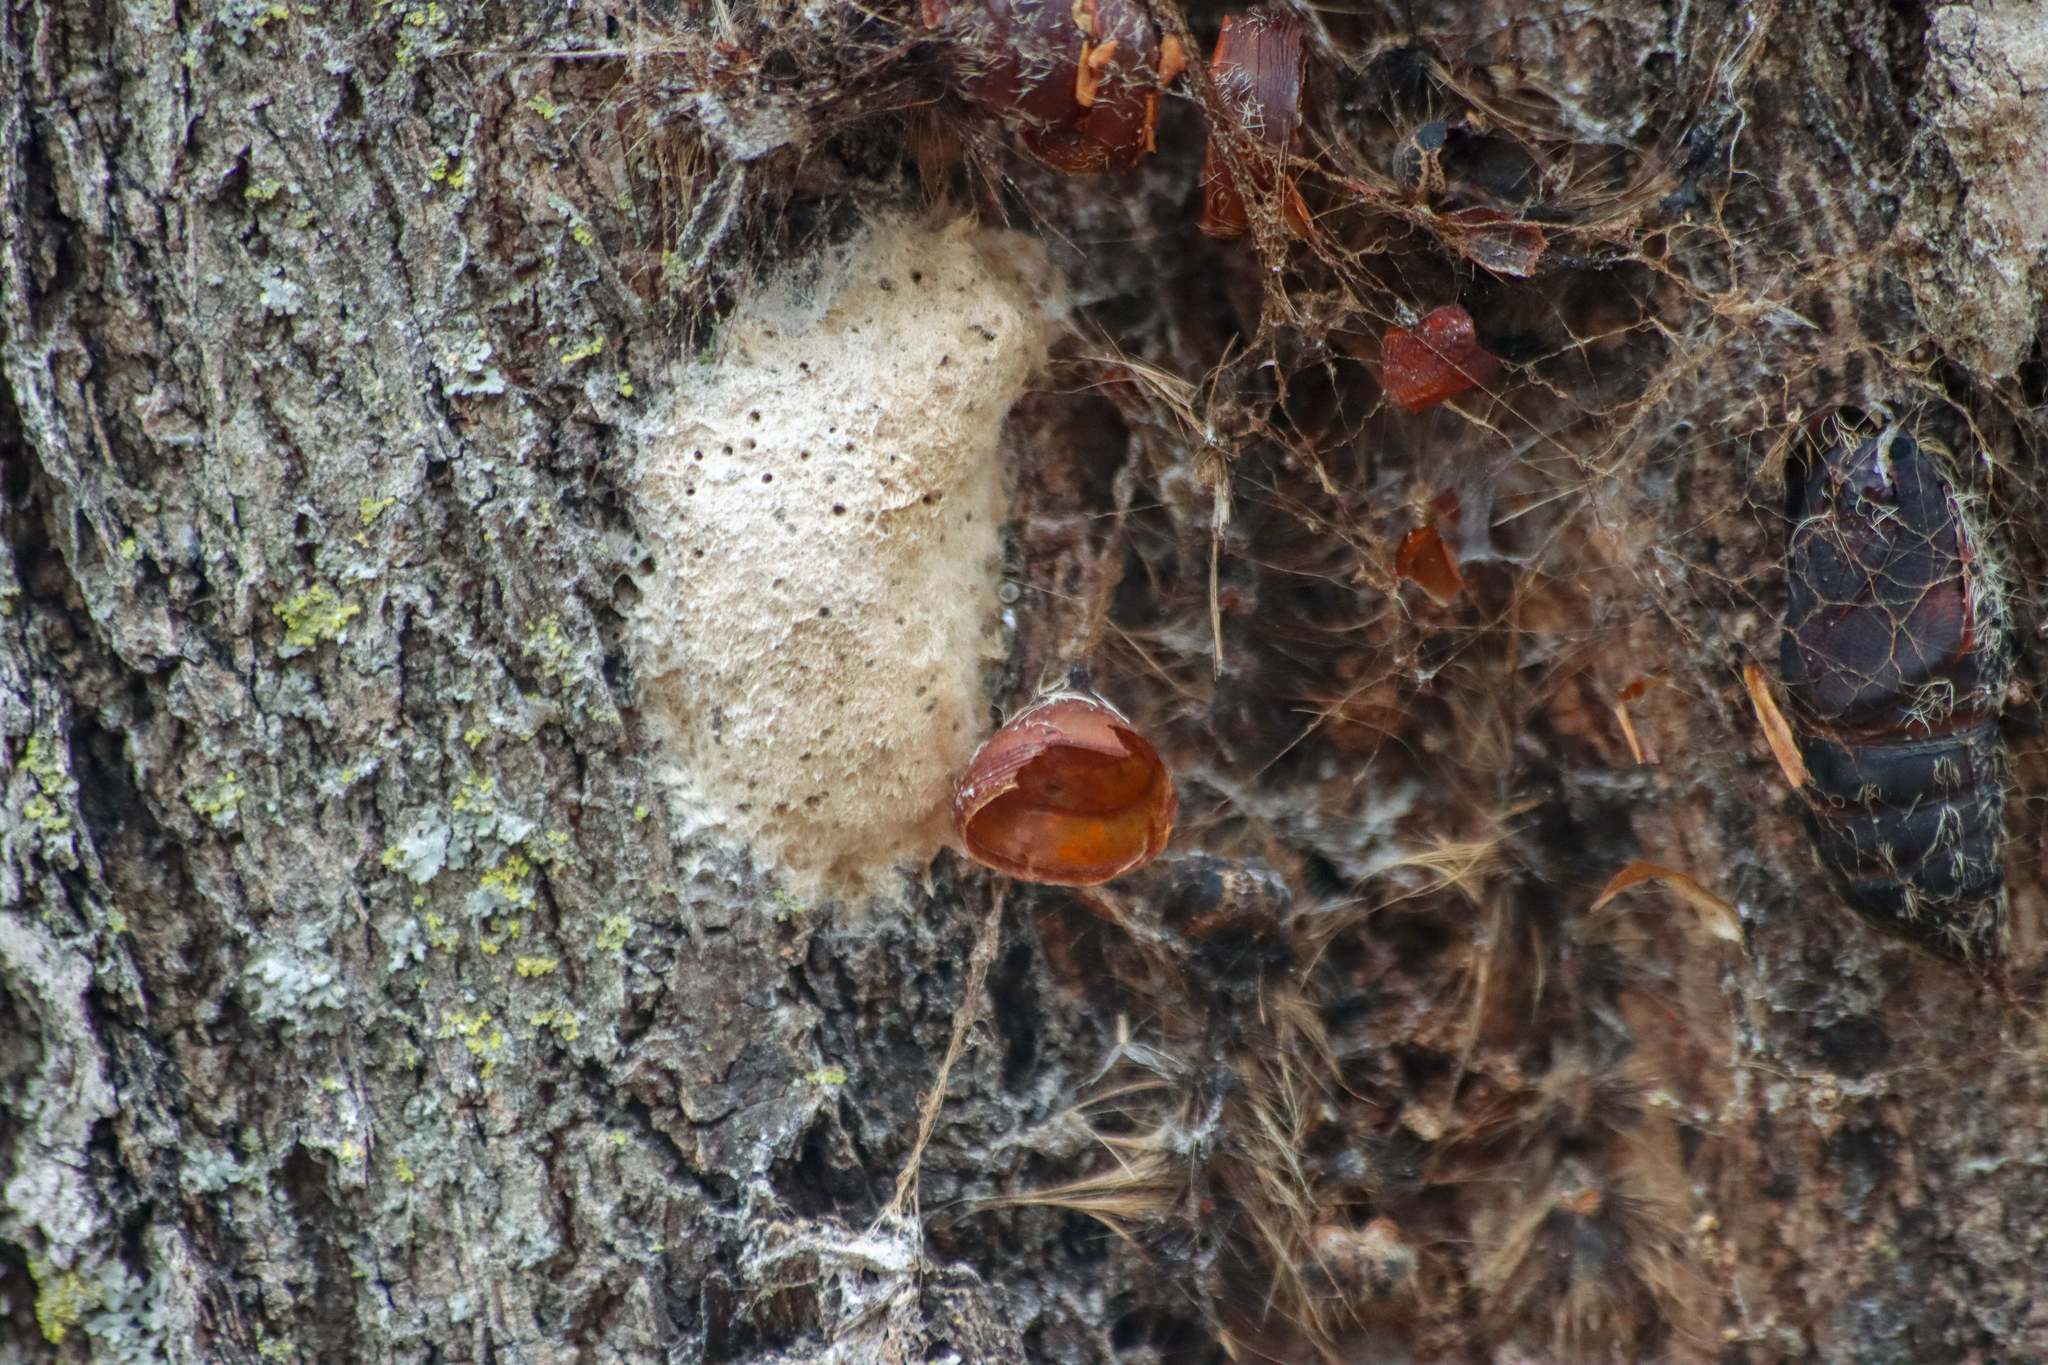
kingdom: Animalia
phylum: Arthropoda
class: Insecta
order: Lepidoptera
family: Erebidae
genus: Lymantria
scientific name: Lymantria dispar
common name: Gypsy moth
